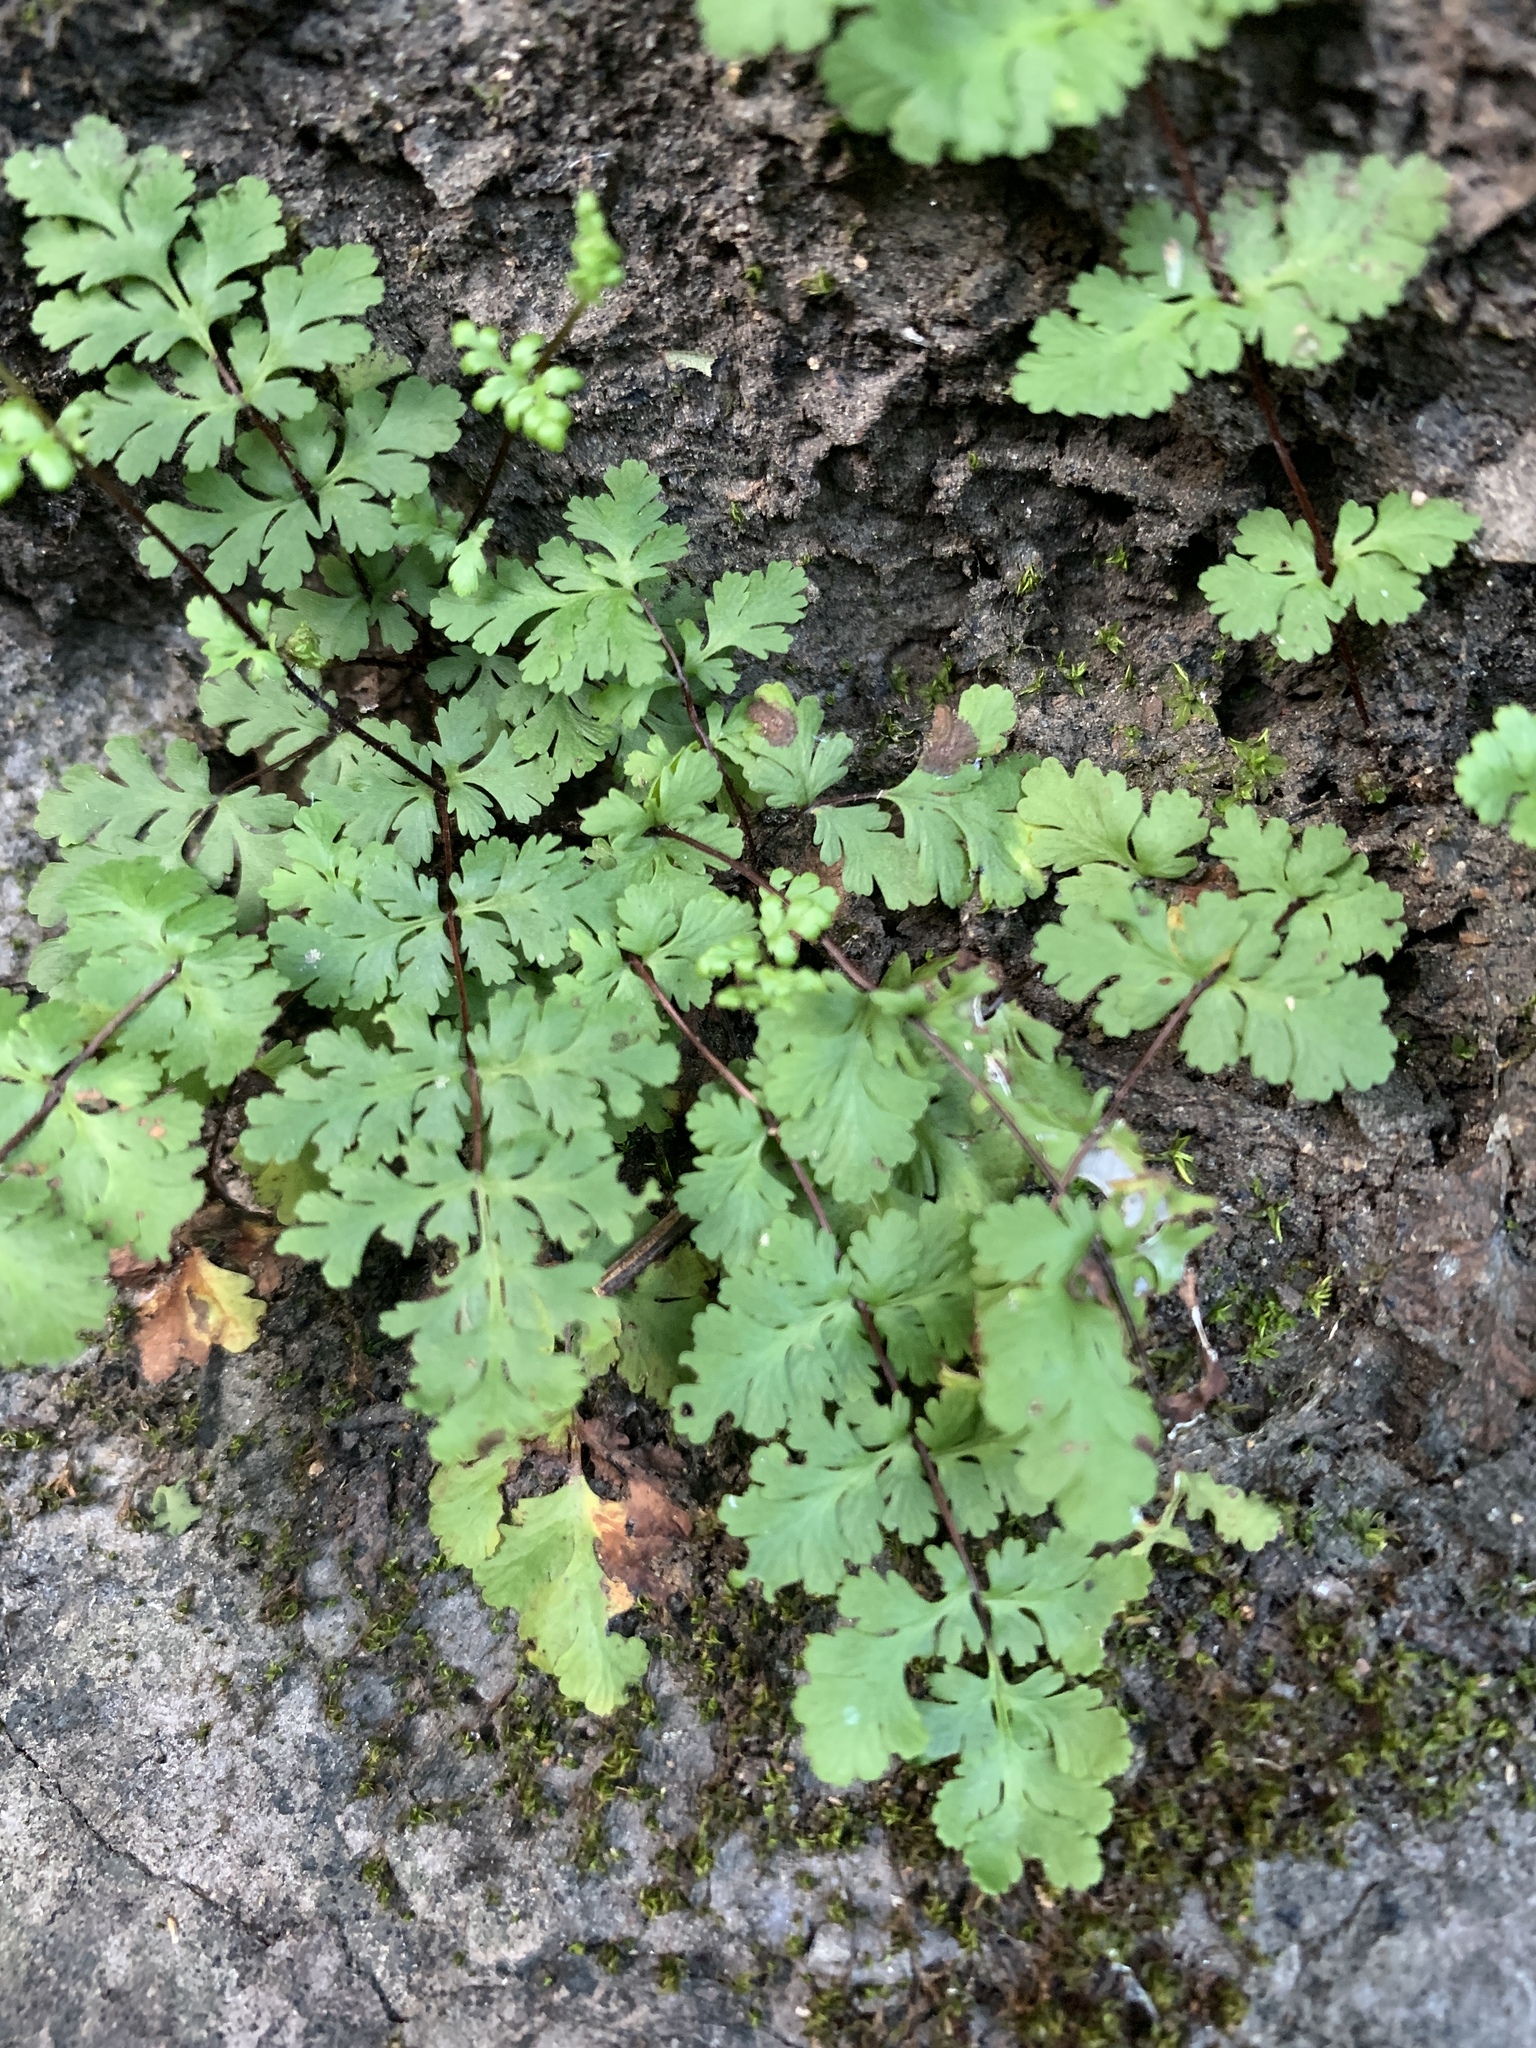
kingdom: Plantae
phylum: Tracheophyta
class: Polypodiopsida
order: Polypodiales
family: Pteridaceae
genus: Oeosporangium
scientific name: Oeosporangium chusanum
